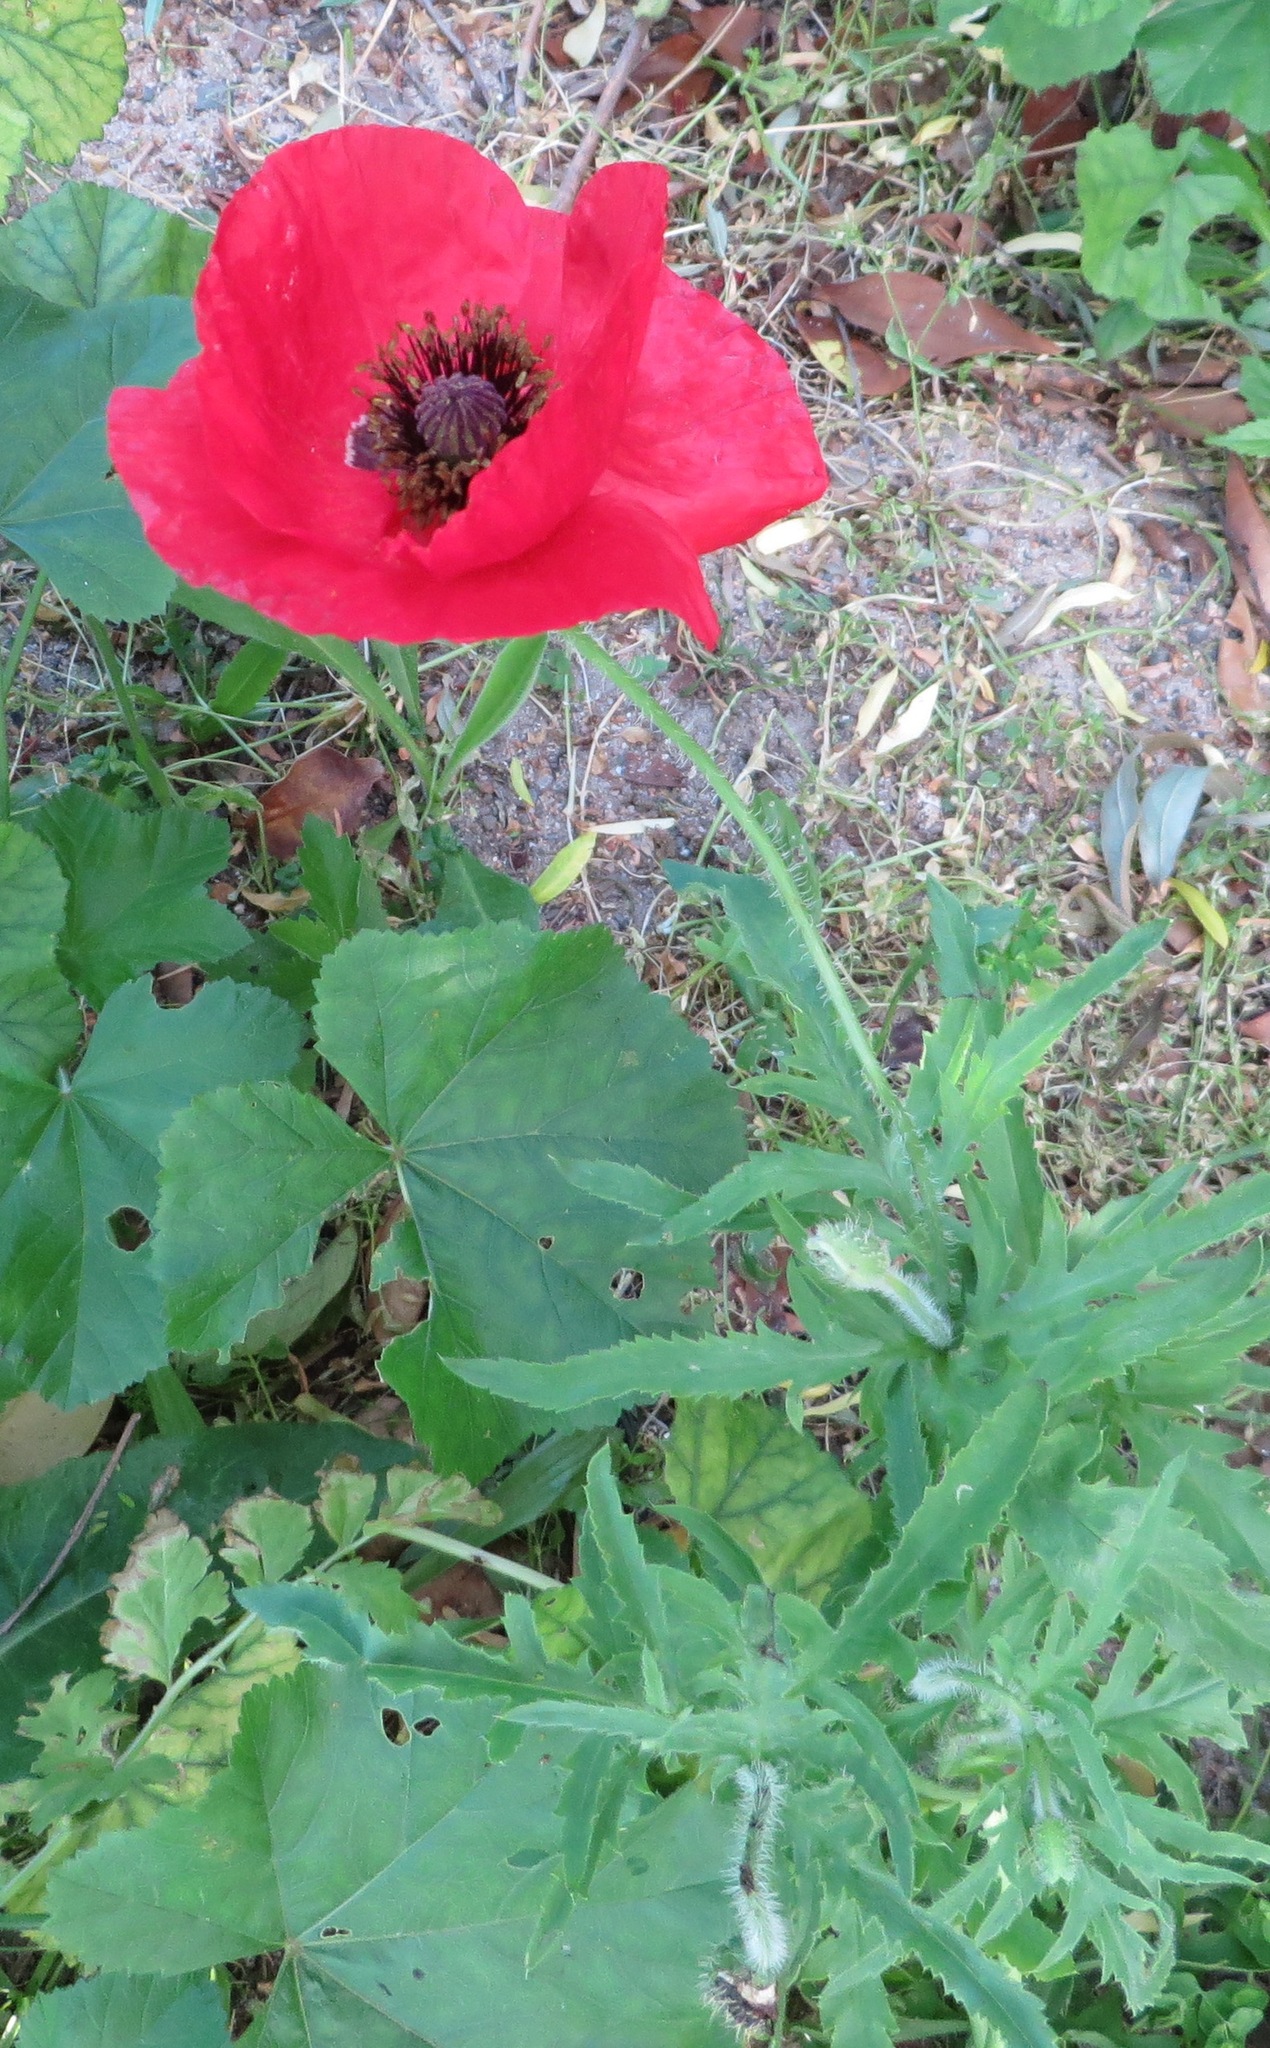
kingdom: Plantae
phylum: Tracheophyta
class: Magnoliopsida
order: Ranunculales
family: Papaveraceae
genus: Papaver
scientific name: Papaver rhoeas
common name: Corn poppy
